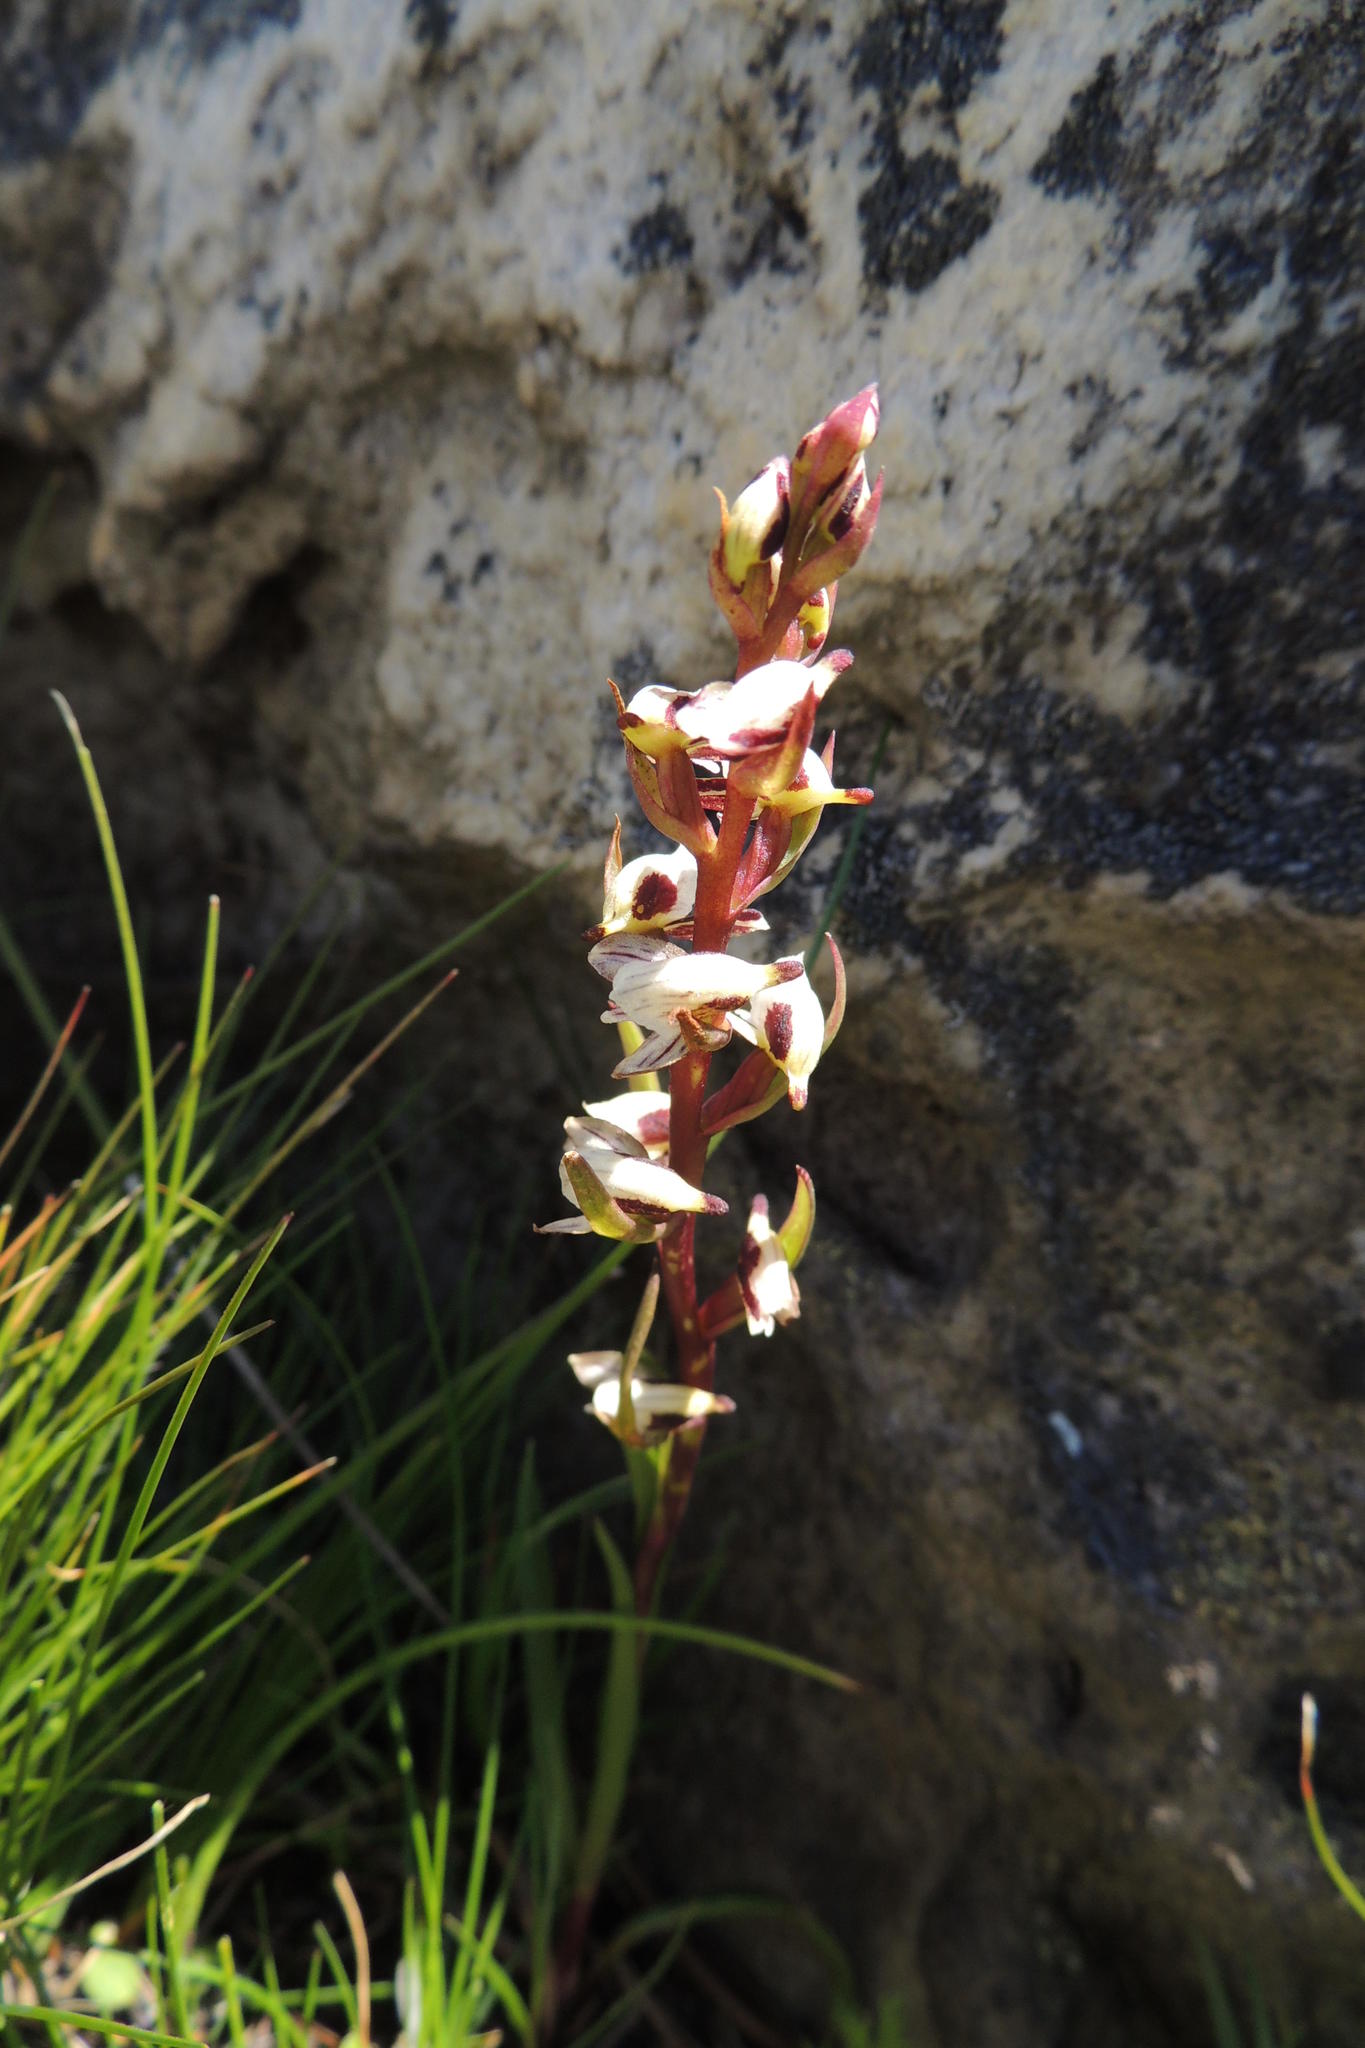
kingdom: Plantae
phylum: Tracheophyta
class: Liliopsida
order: Asparagales
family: Orchidaceae
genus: Disa
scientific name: Disa ocellata
